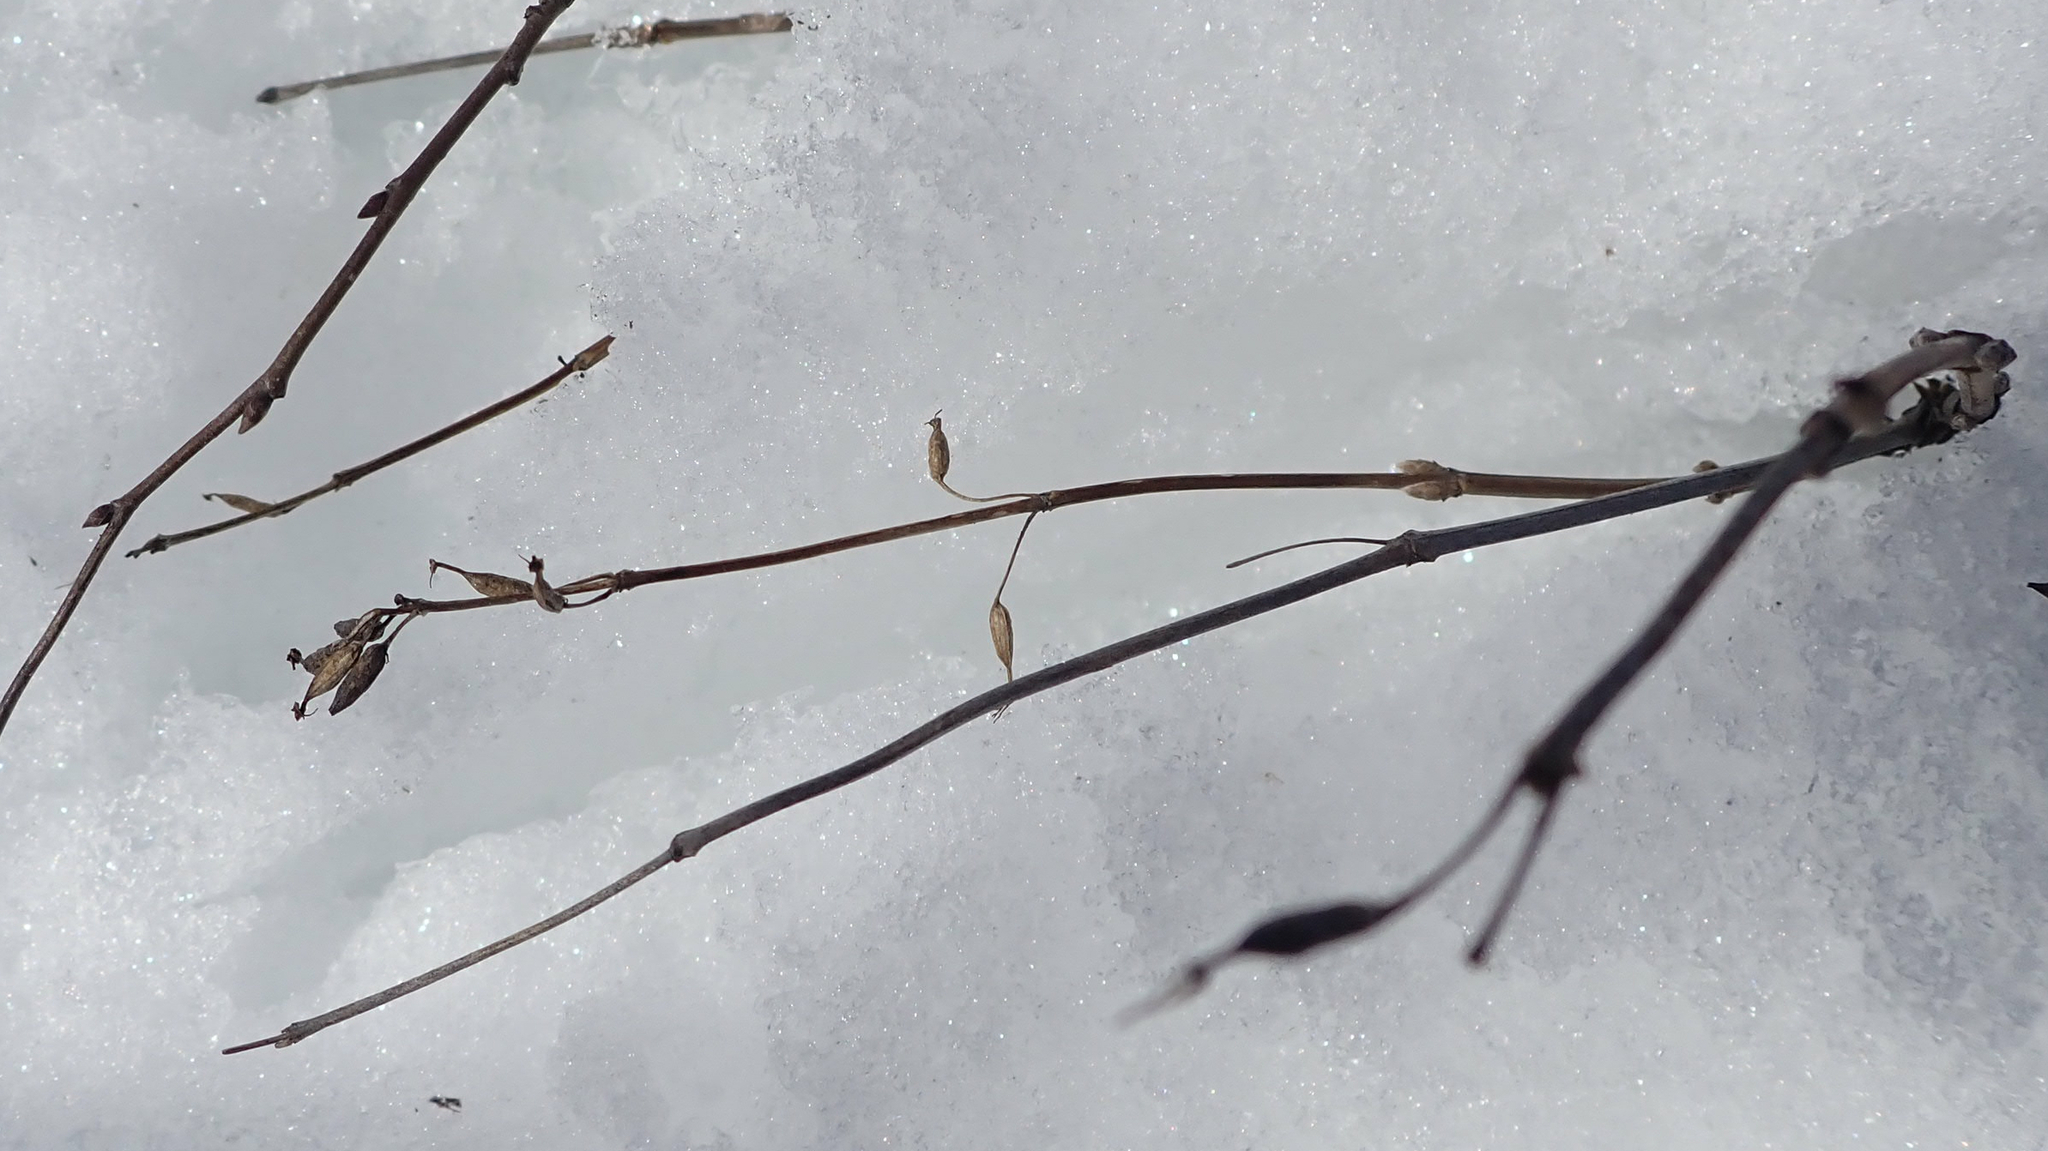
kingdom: Plantae
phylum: Tracheophyta
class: Magnoliopsida
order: Dipsacales
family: Caprifoliaceae
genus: Diervilla
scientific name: Diervilla lonicera
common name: Bush-honeysuckle
